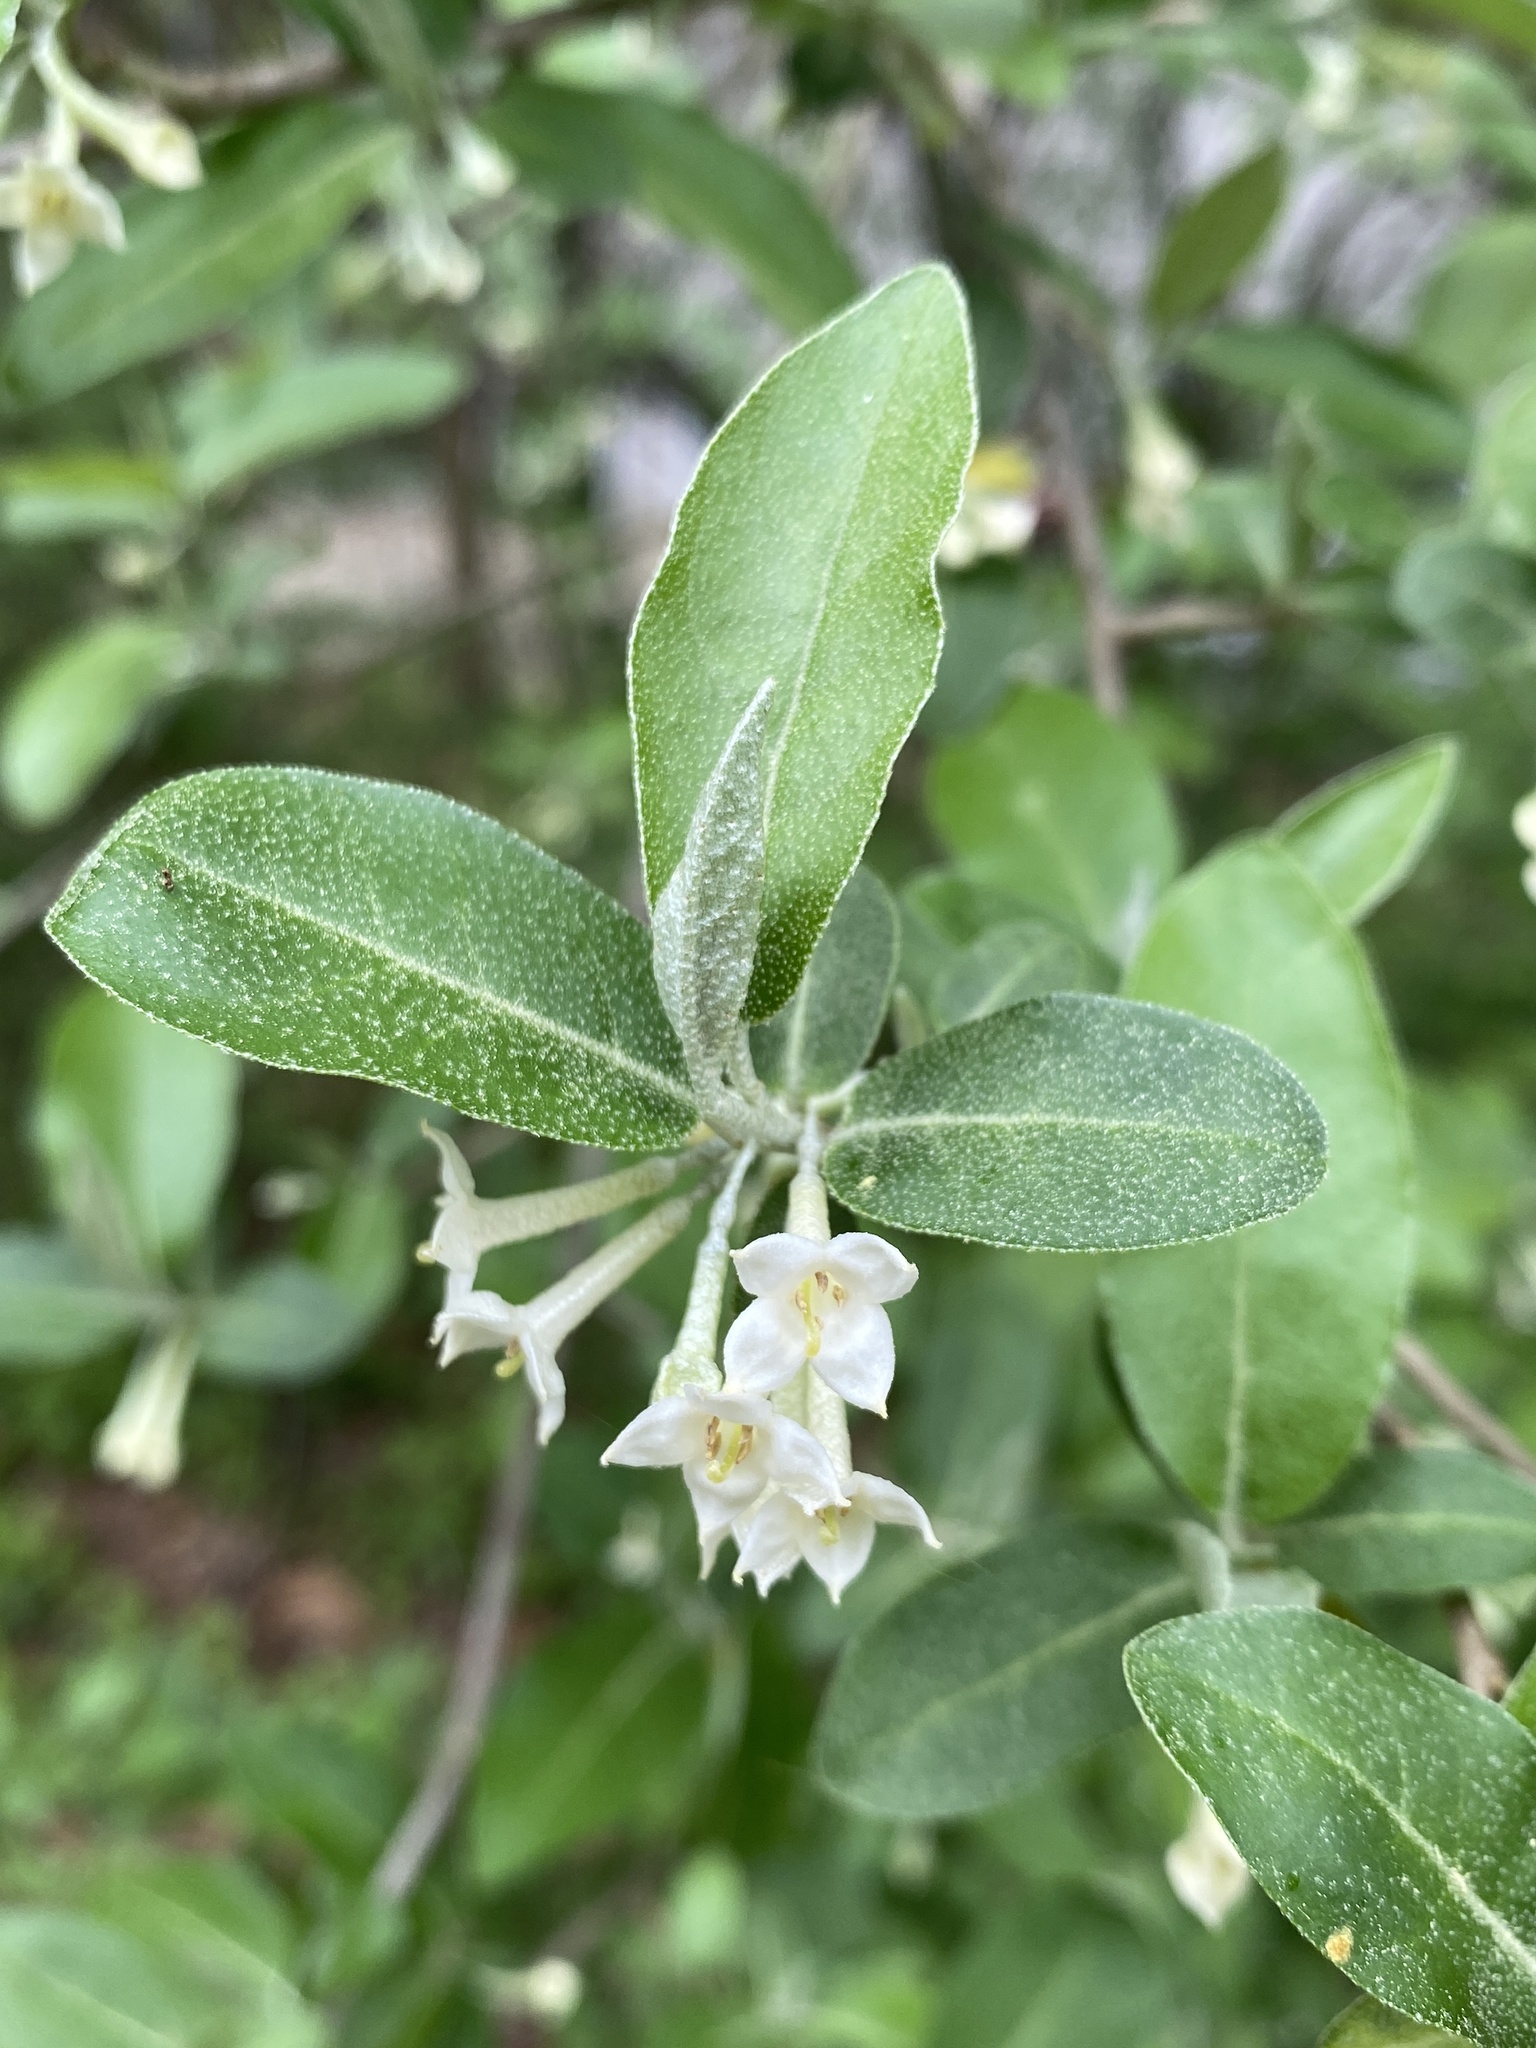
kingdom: Plantae
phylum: Tracheophyta
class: Magnoliopsida
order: Rosales
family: Elaeagnaceae
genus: Elaeagnus
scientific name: Elaeagnus umbellata
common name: Autumn olive
